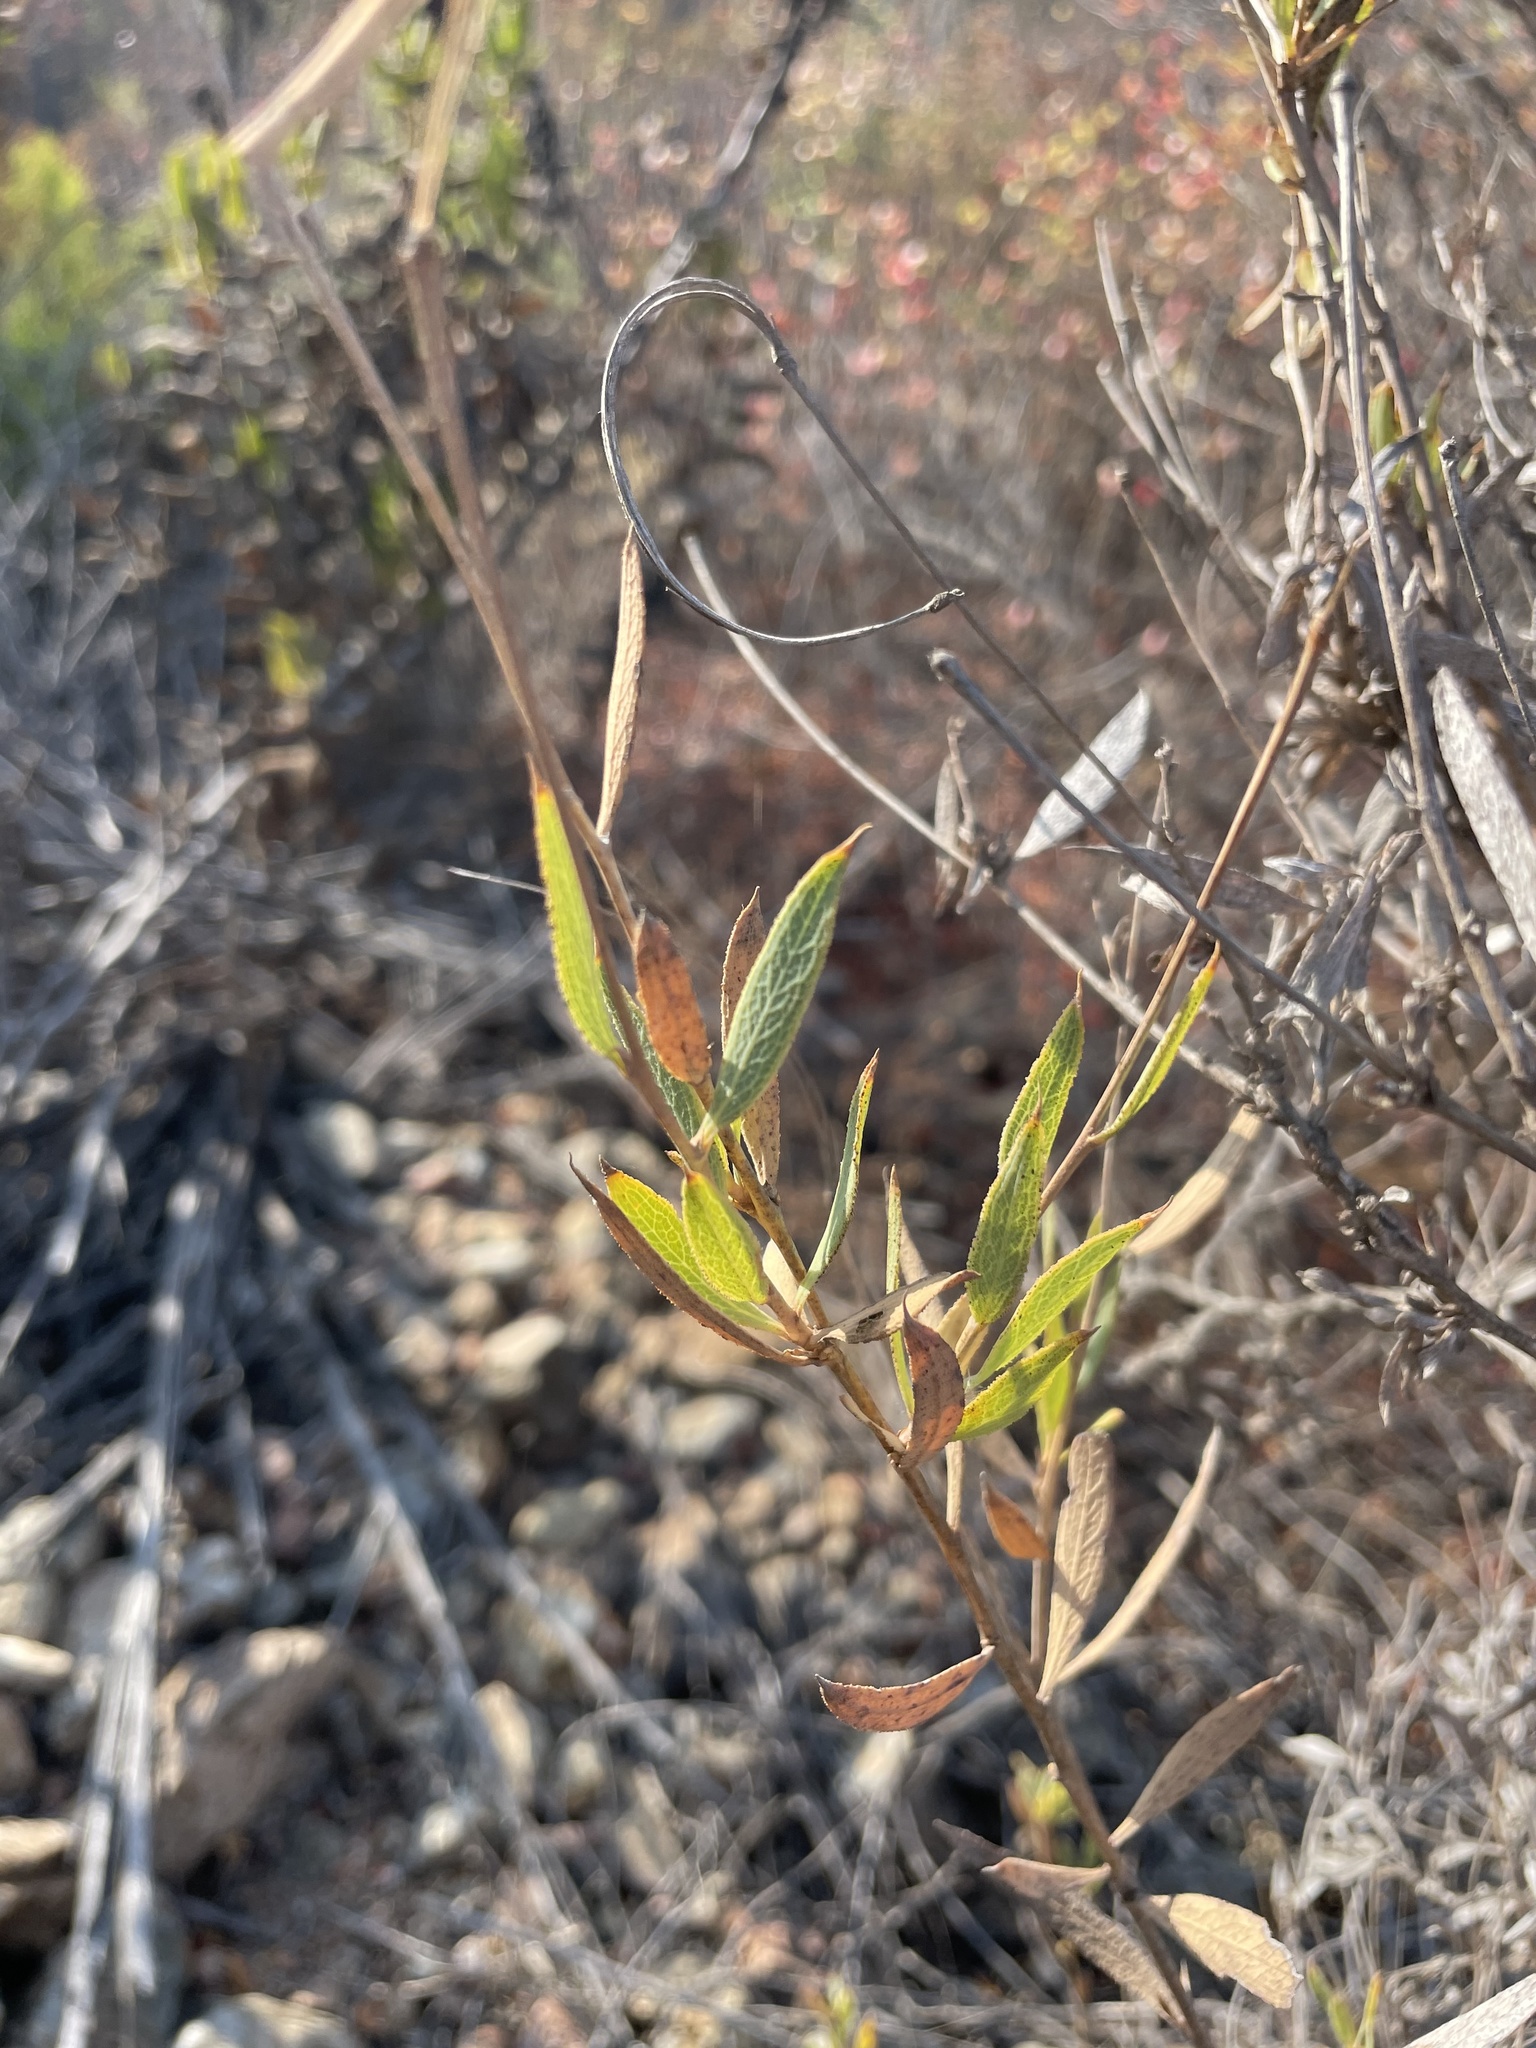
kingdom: Plantae
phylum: Tracheophyta
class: Magnoliopsida
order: Ranunculales
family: Papaveraceae
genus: Dendromecon
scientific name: Dendromecon rigida
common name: Tree poppy
